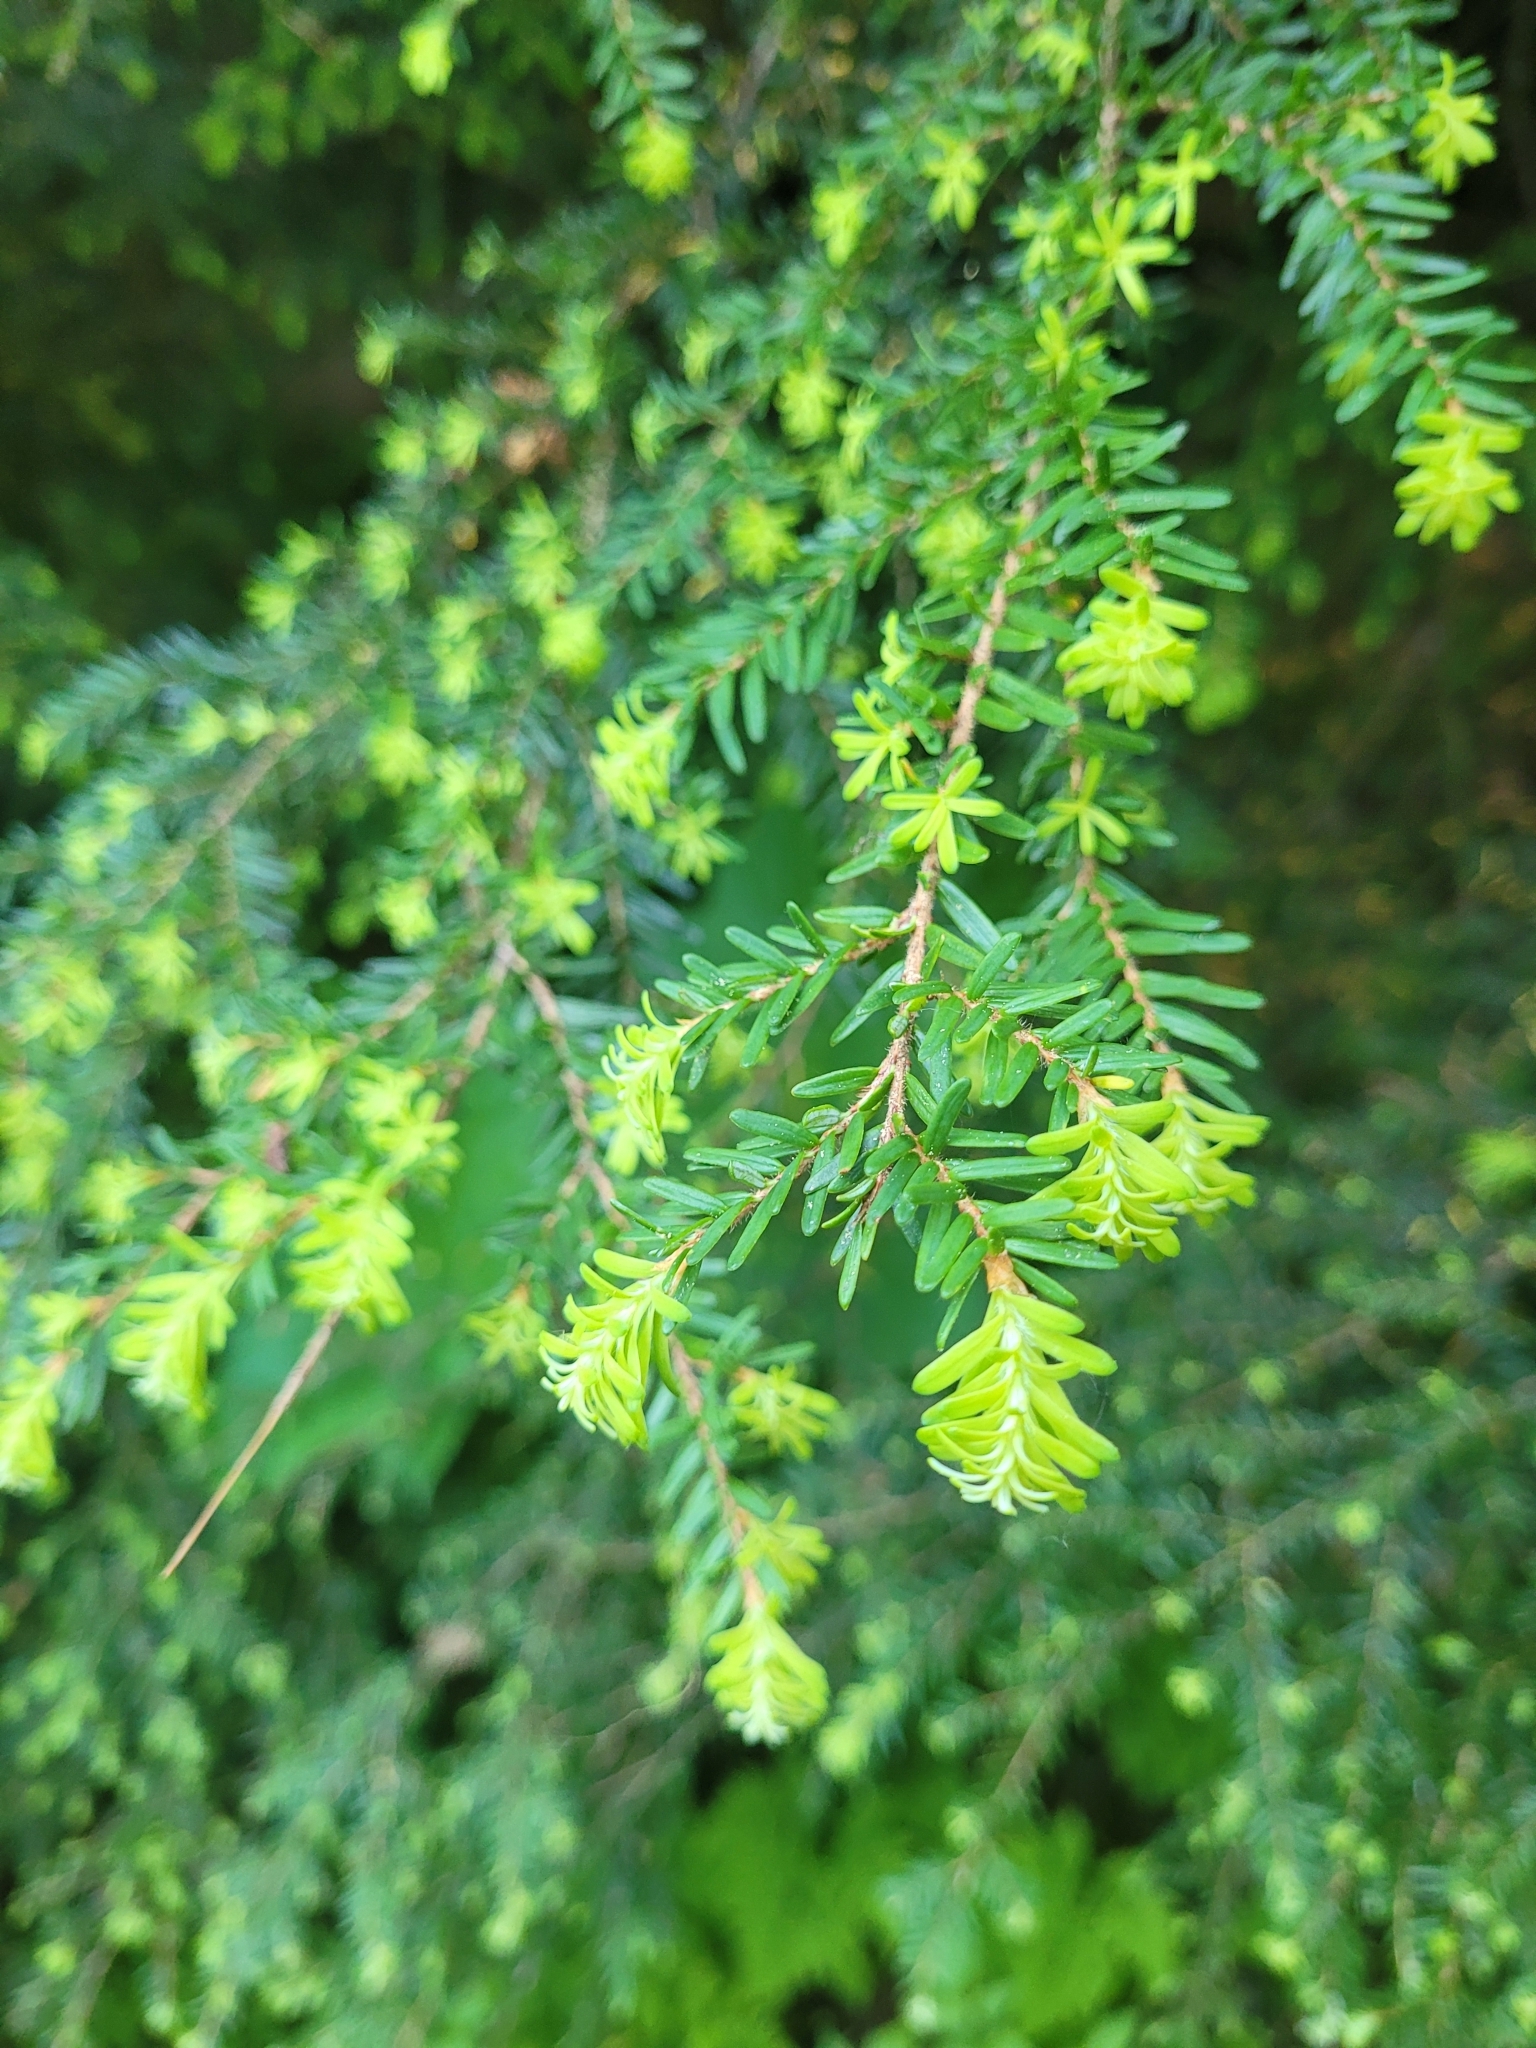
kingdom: Plantae
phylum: Tracheophyta
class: Pinopsida
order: Pinales
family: Pinaceae
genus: Tsuga
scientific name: Tsuga heterophylla
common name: Western hemlock
